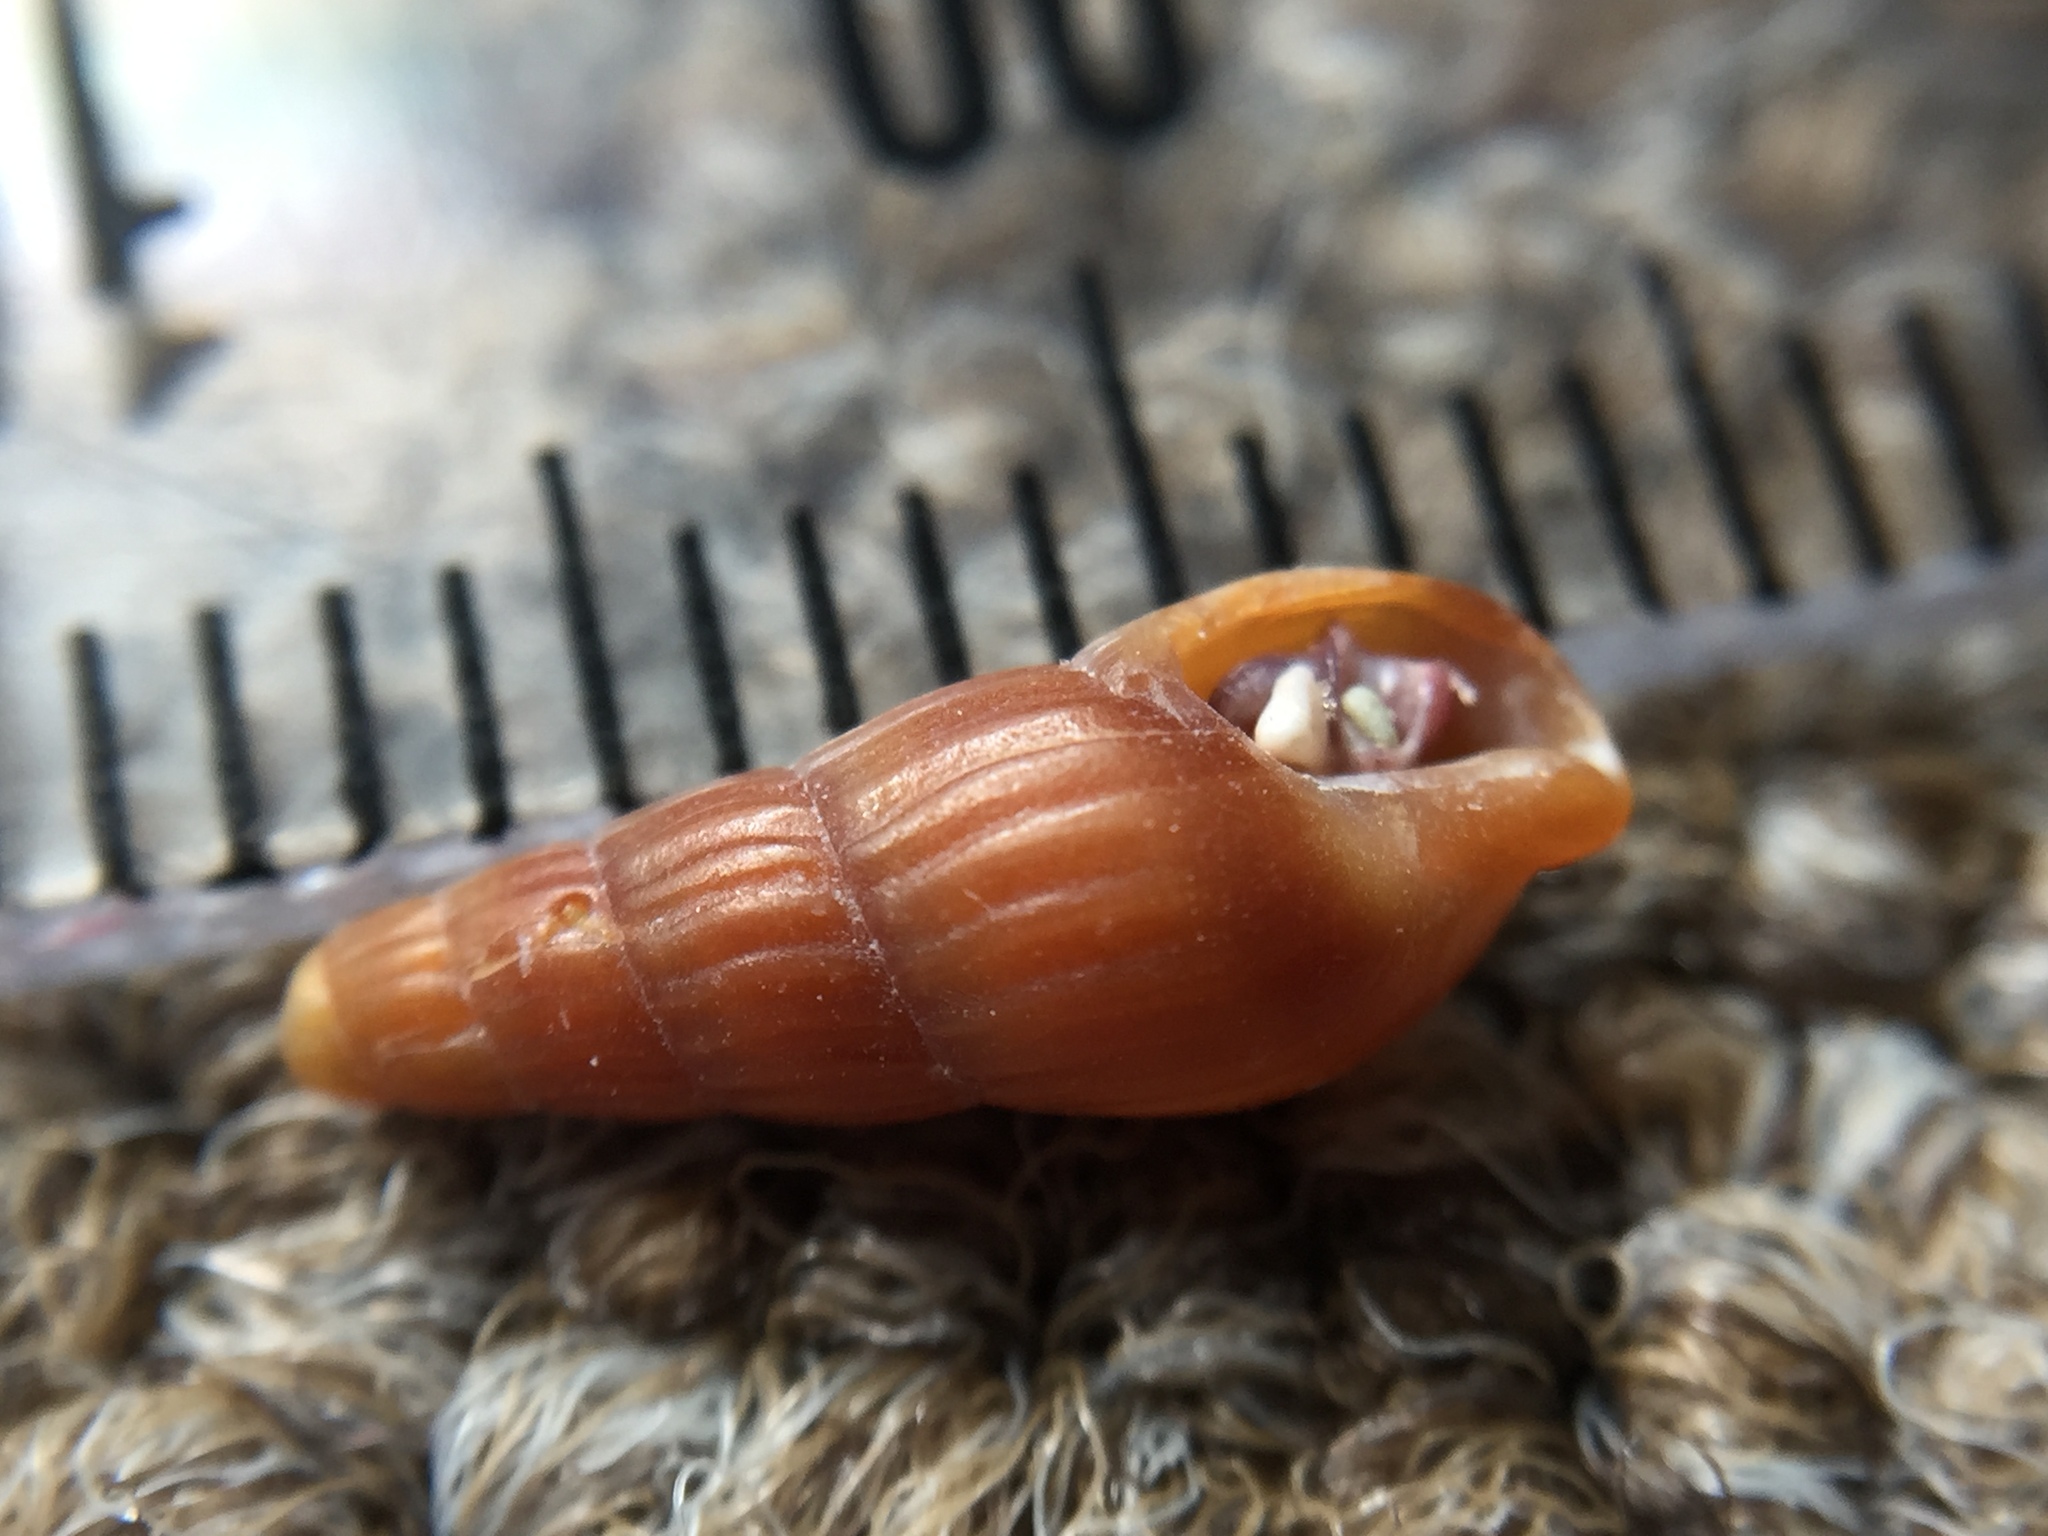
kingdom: Animalia
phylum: Mollusca
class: Gastropoda
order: Neogastropoda
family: Terebridae
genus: Duplicaria
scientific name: Duplicaria tristis
